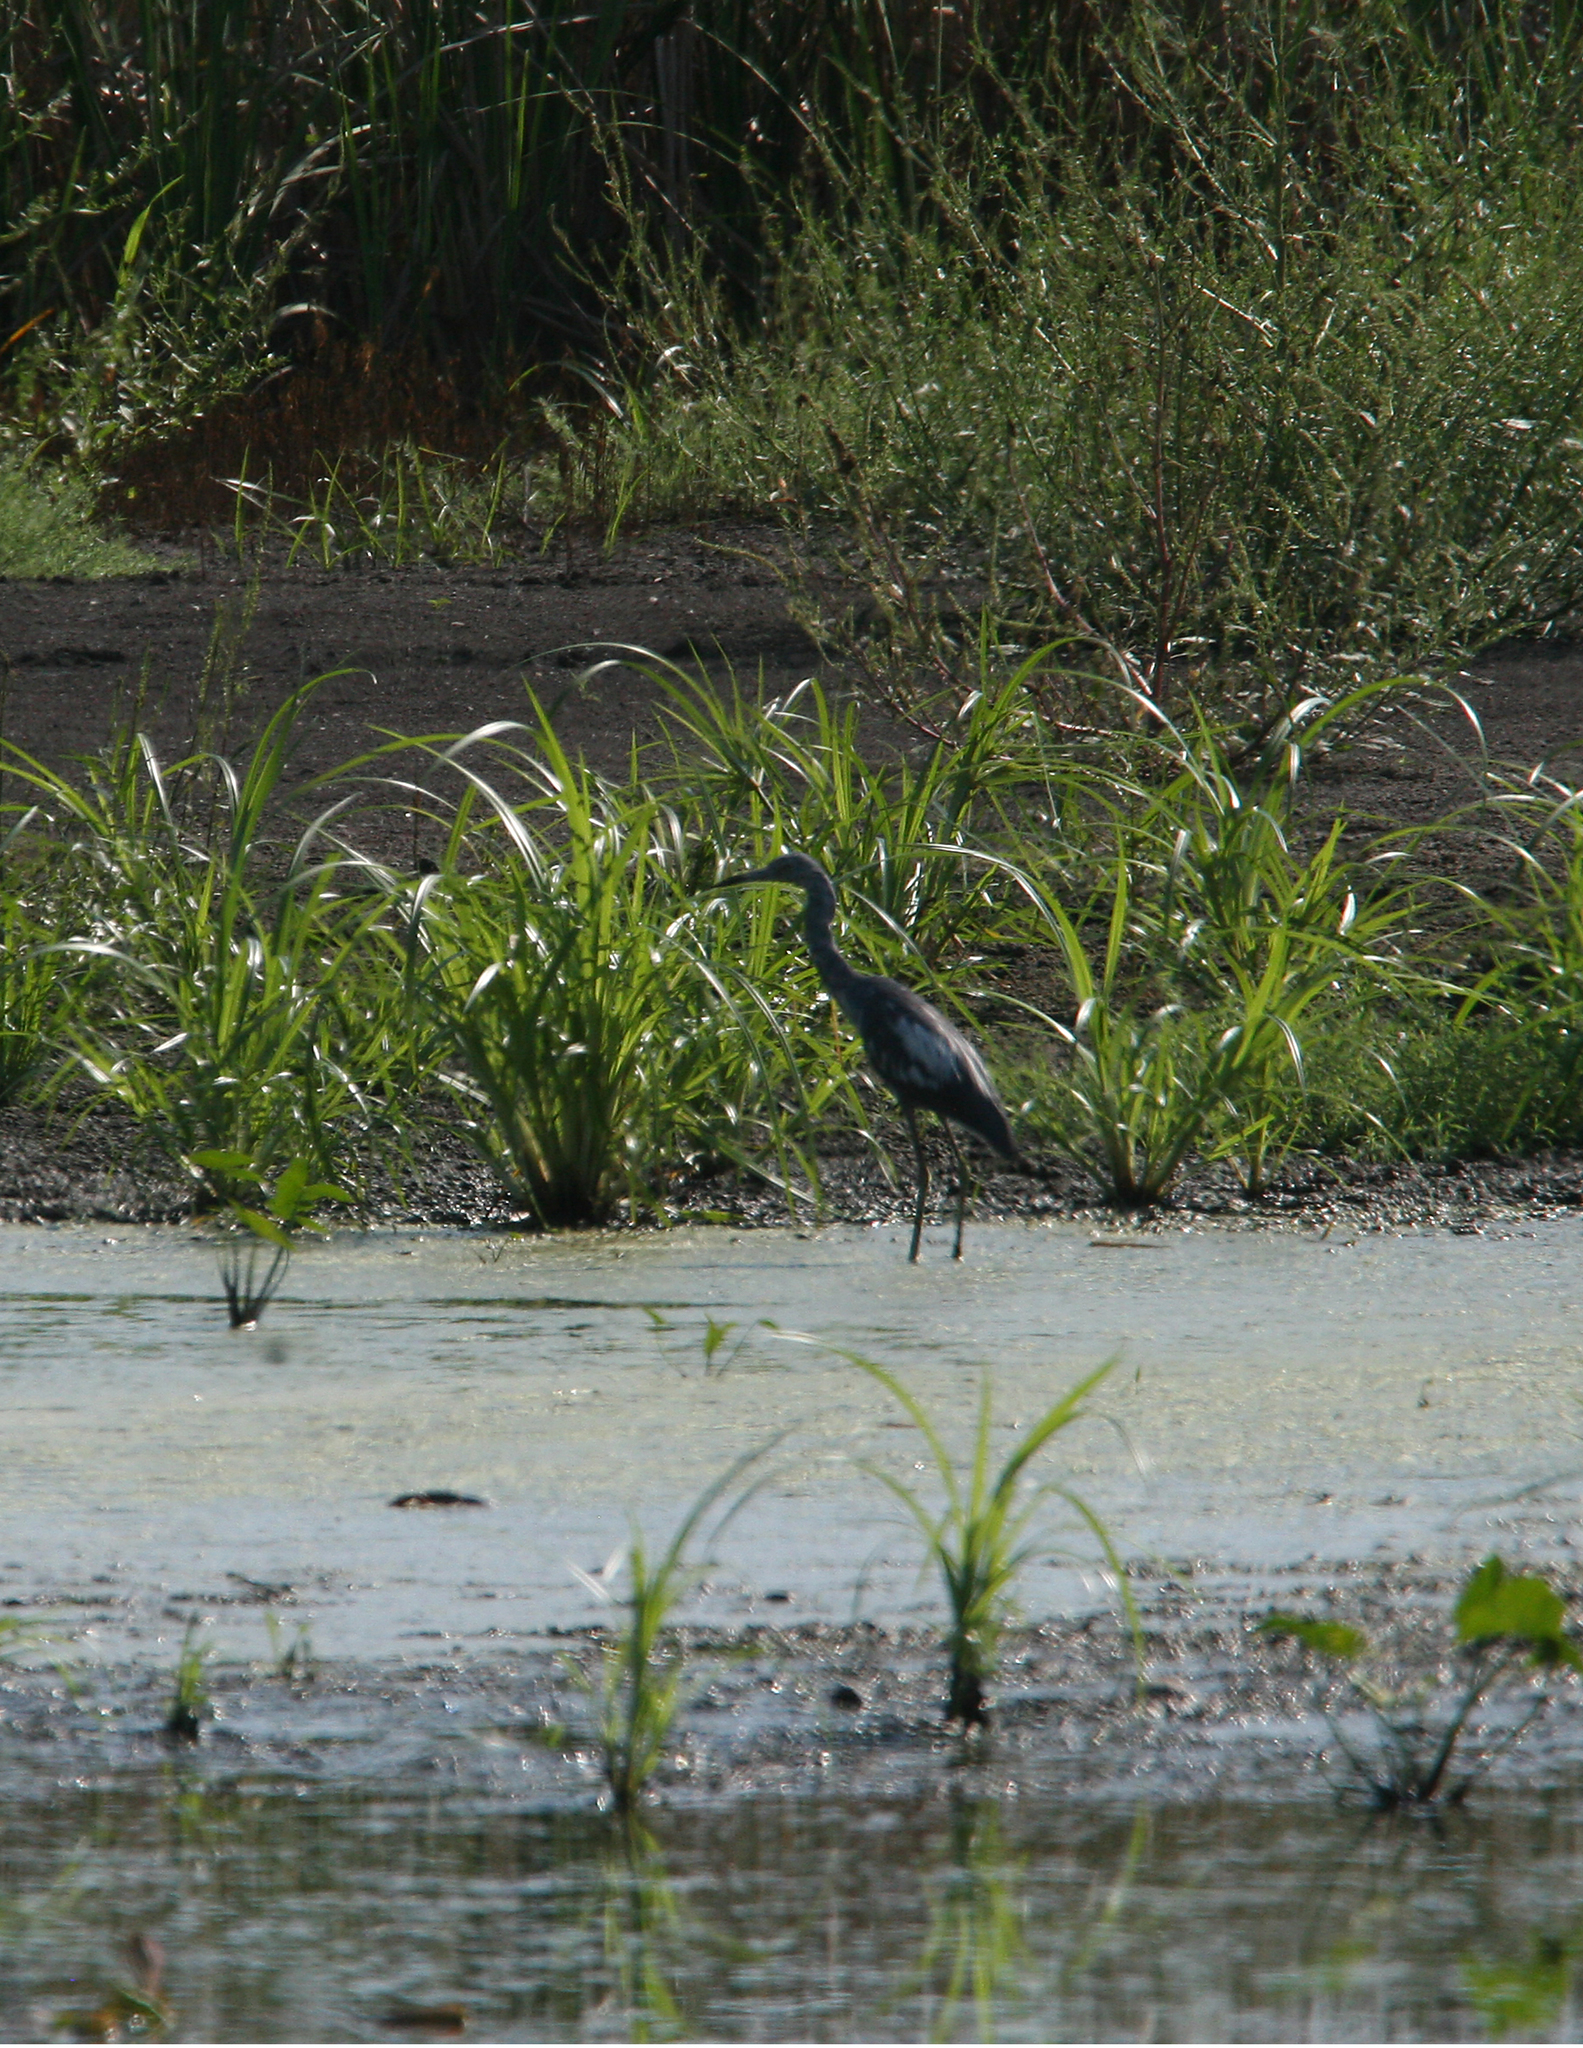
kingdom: Animalia
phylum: Chordata
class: Aves
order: Pelecaniformes
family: Ardeidae
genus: Egretta
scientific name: Egretta caerulea
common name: Little blue heron
